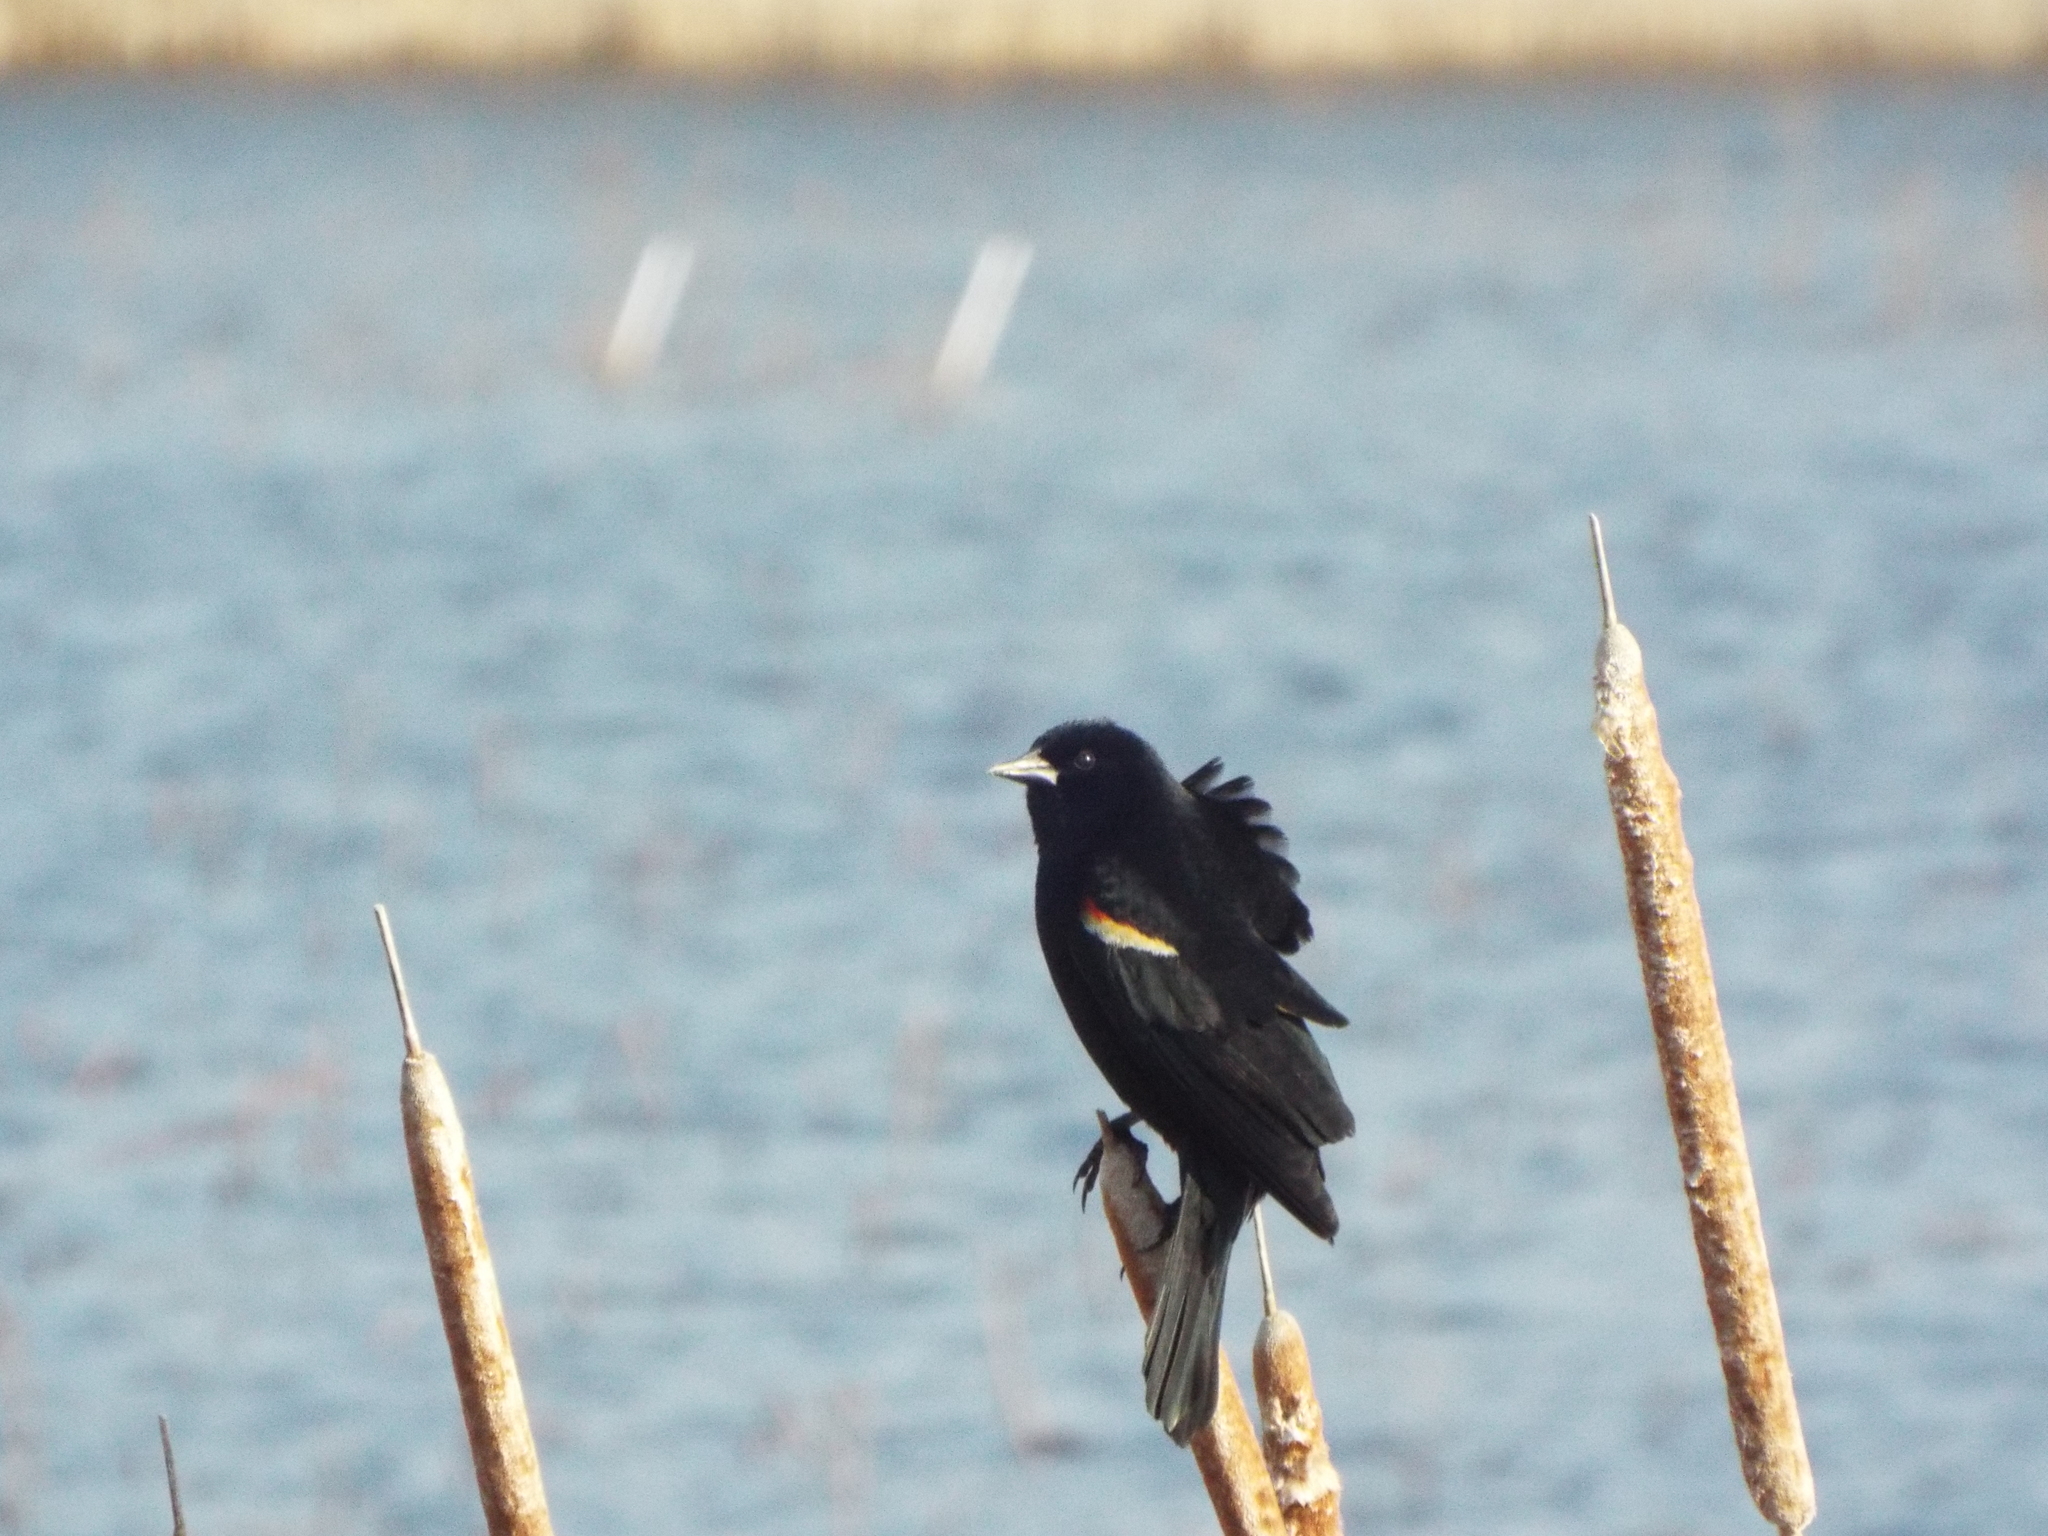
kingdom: Animalia
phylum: Chordata
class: Aves
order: Passeriformes
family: Icteridae
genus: Agelaius
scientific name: Agelaius phoeniceus
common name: Red-winged blackbird
